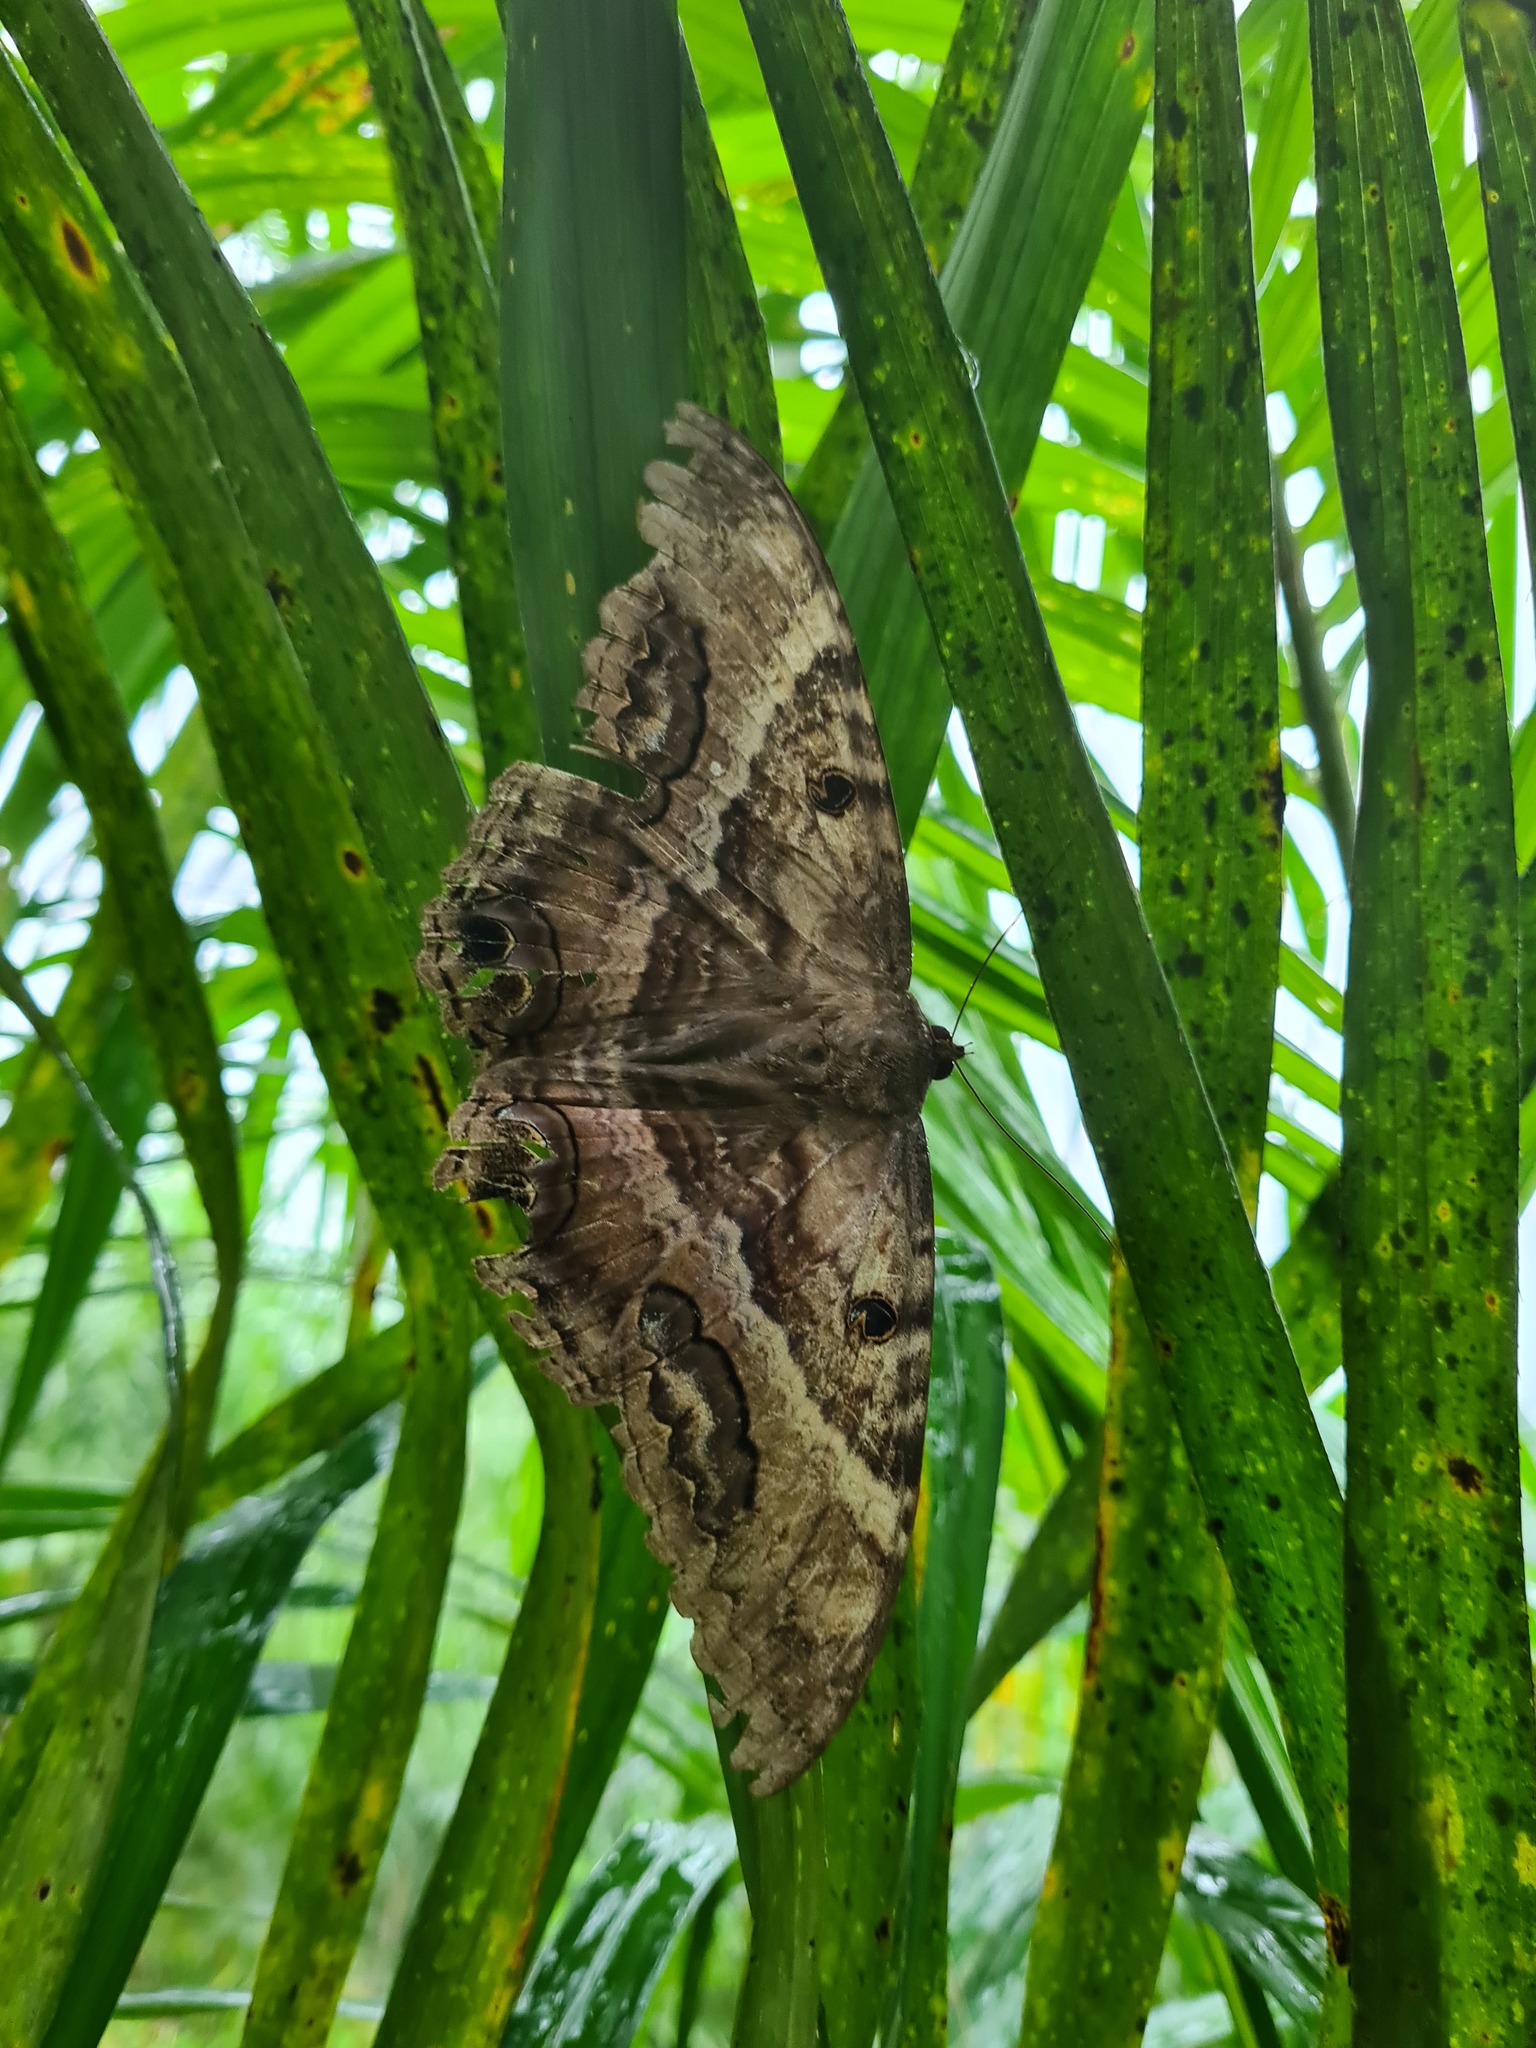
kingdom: Animalia
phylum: Arthropoda
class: Insecta
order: Lepidoptera
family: Erebidae
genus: Ascalapha
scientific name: Ascalapha odorata
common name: Black witch
